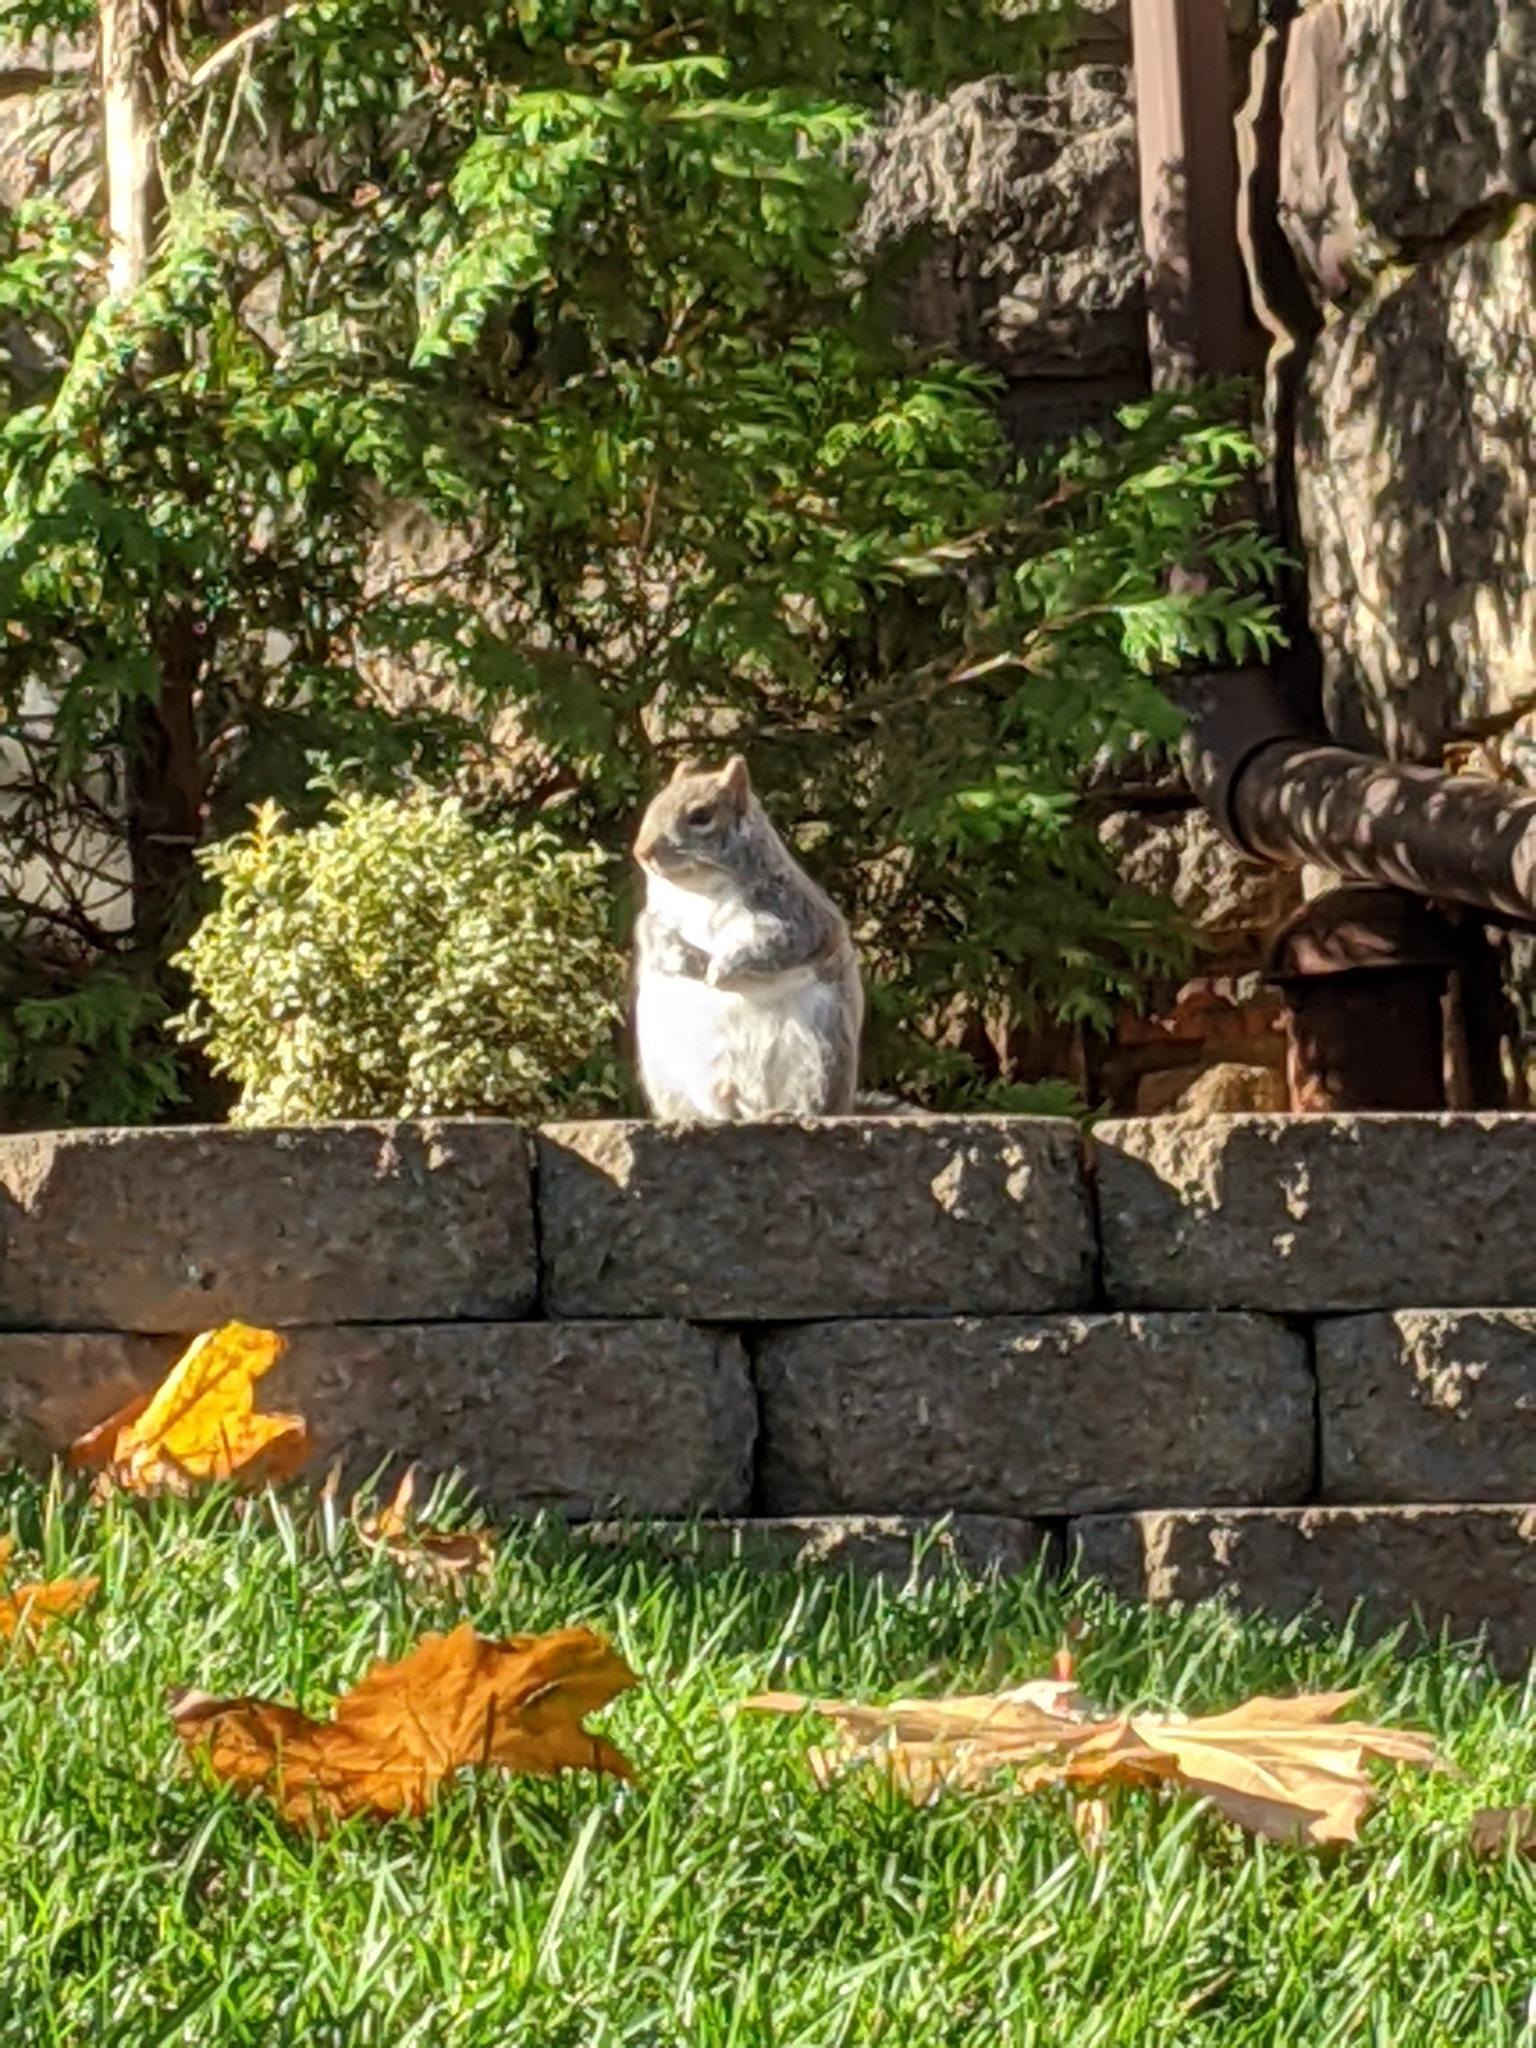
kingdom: Animalia
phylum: Chordata
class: Mammalia
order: Rodentia
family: Sciuridae
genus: Sciurus
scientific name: Sciurus carolinensis
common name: Eastern gray squirrel
